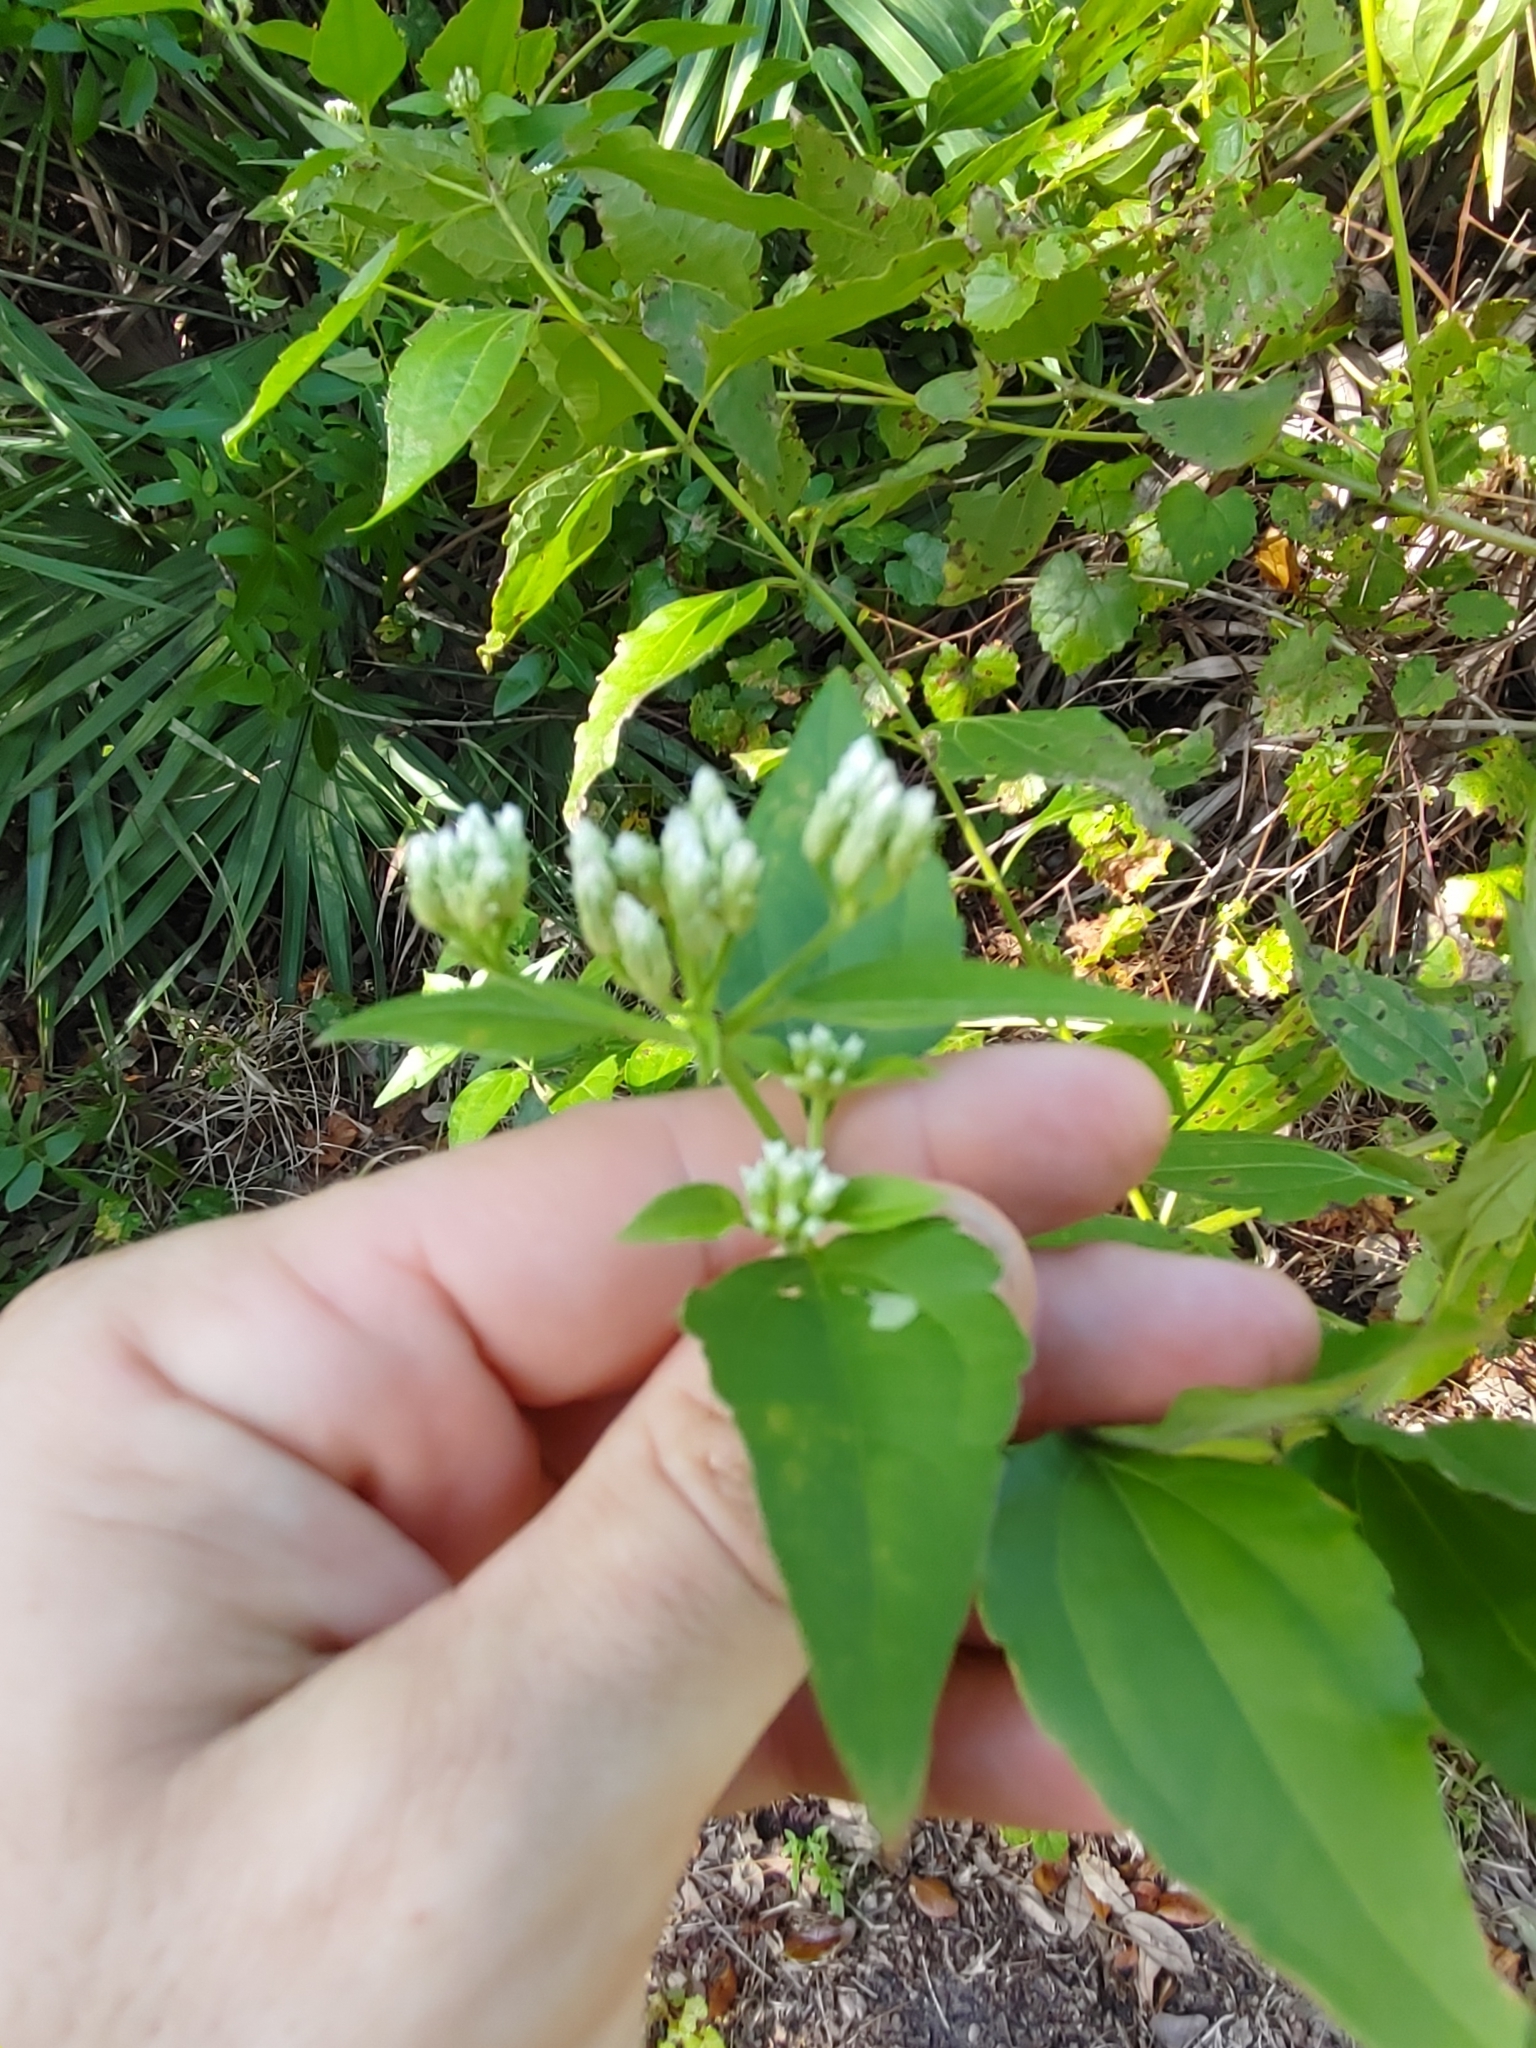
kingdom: Plantae
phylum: Tracheophyta
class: Magnoliopsida
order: Asterales
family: Asteraceae
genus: Chromolaena
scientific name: Chromolaena odorata
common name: Siamweed
